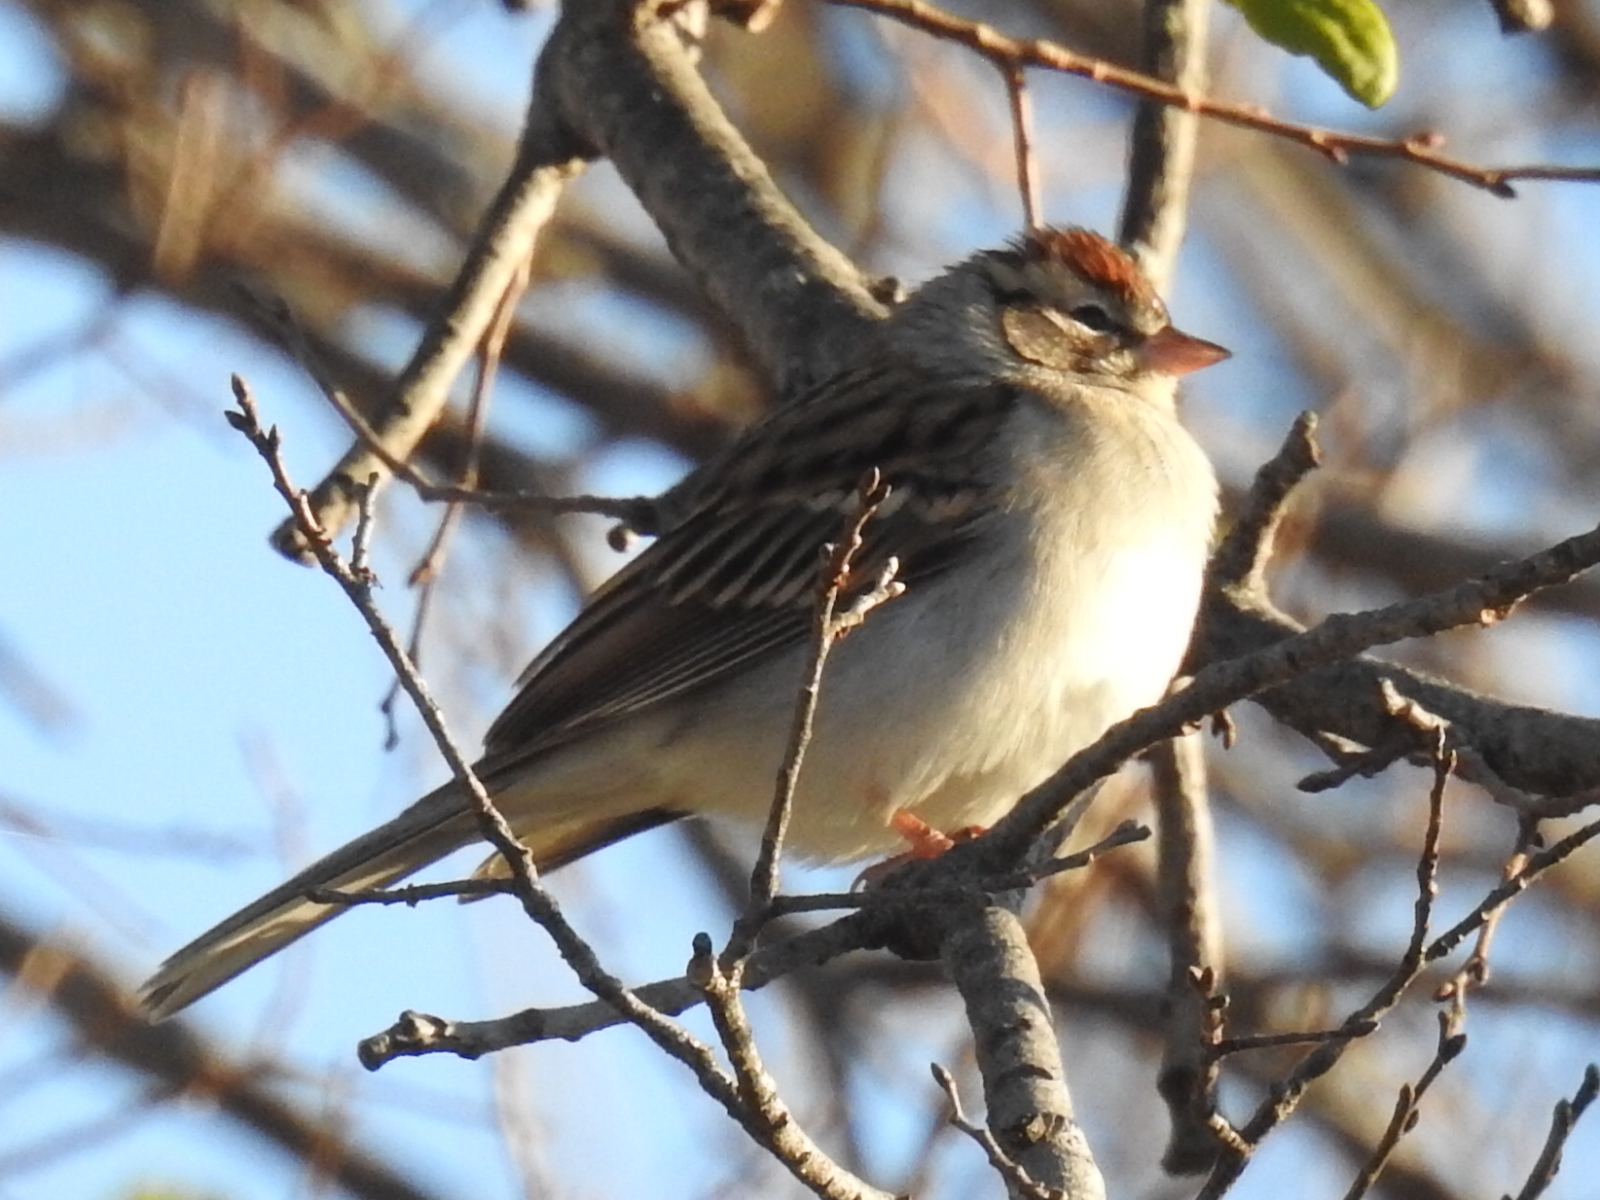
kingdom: Animalia
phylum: Chordata
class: Aves
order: Passeriformes
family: Passerellidae
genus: Spizella
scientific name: Spizella passerina
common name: Chipping sparrow
